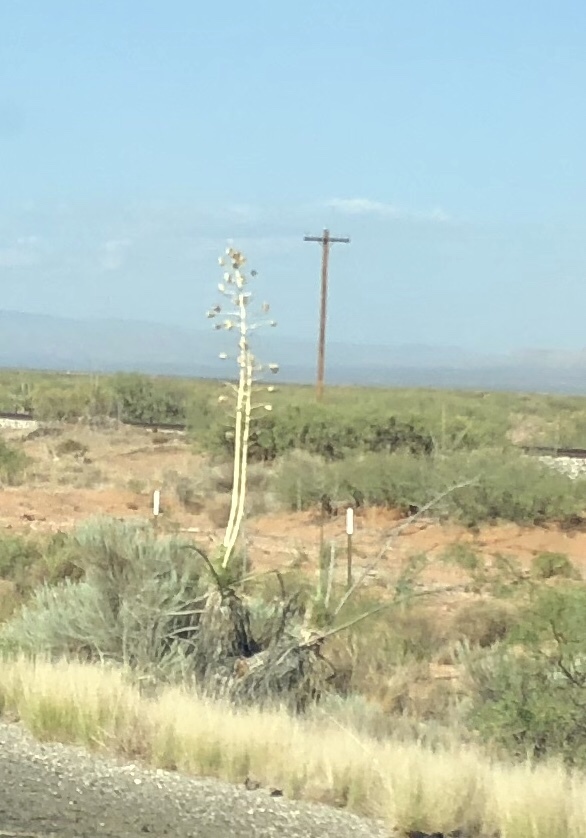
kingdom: Plantae
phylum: Tracheophyta
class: Liliopsida
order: Asparagales
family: Asparagaceae
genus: Yucca
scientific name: Yucca elata
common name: Palmella
